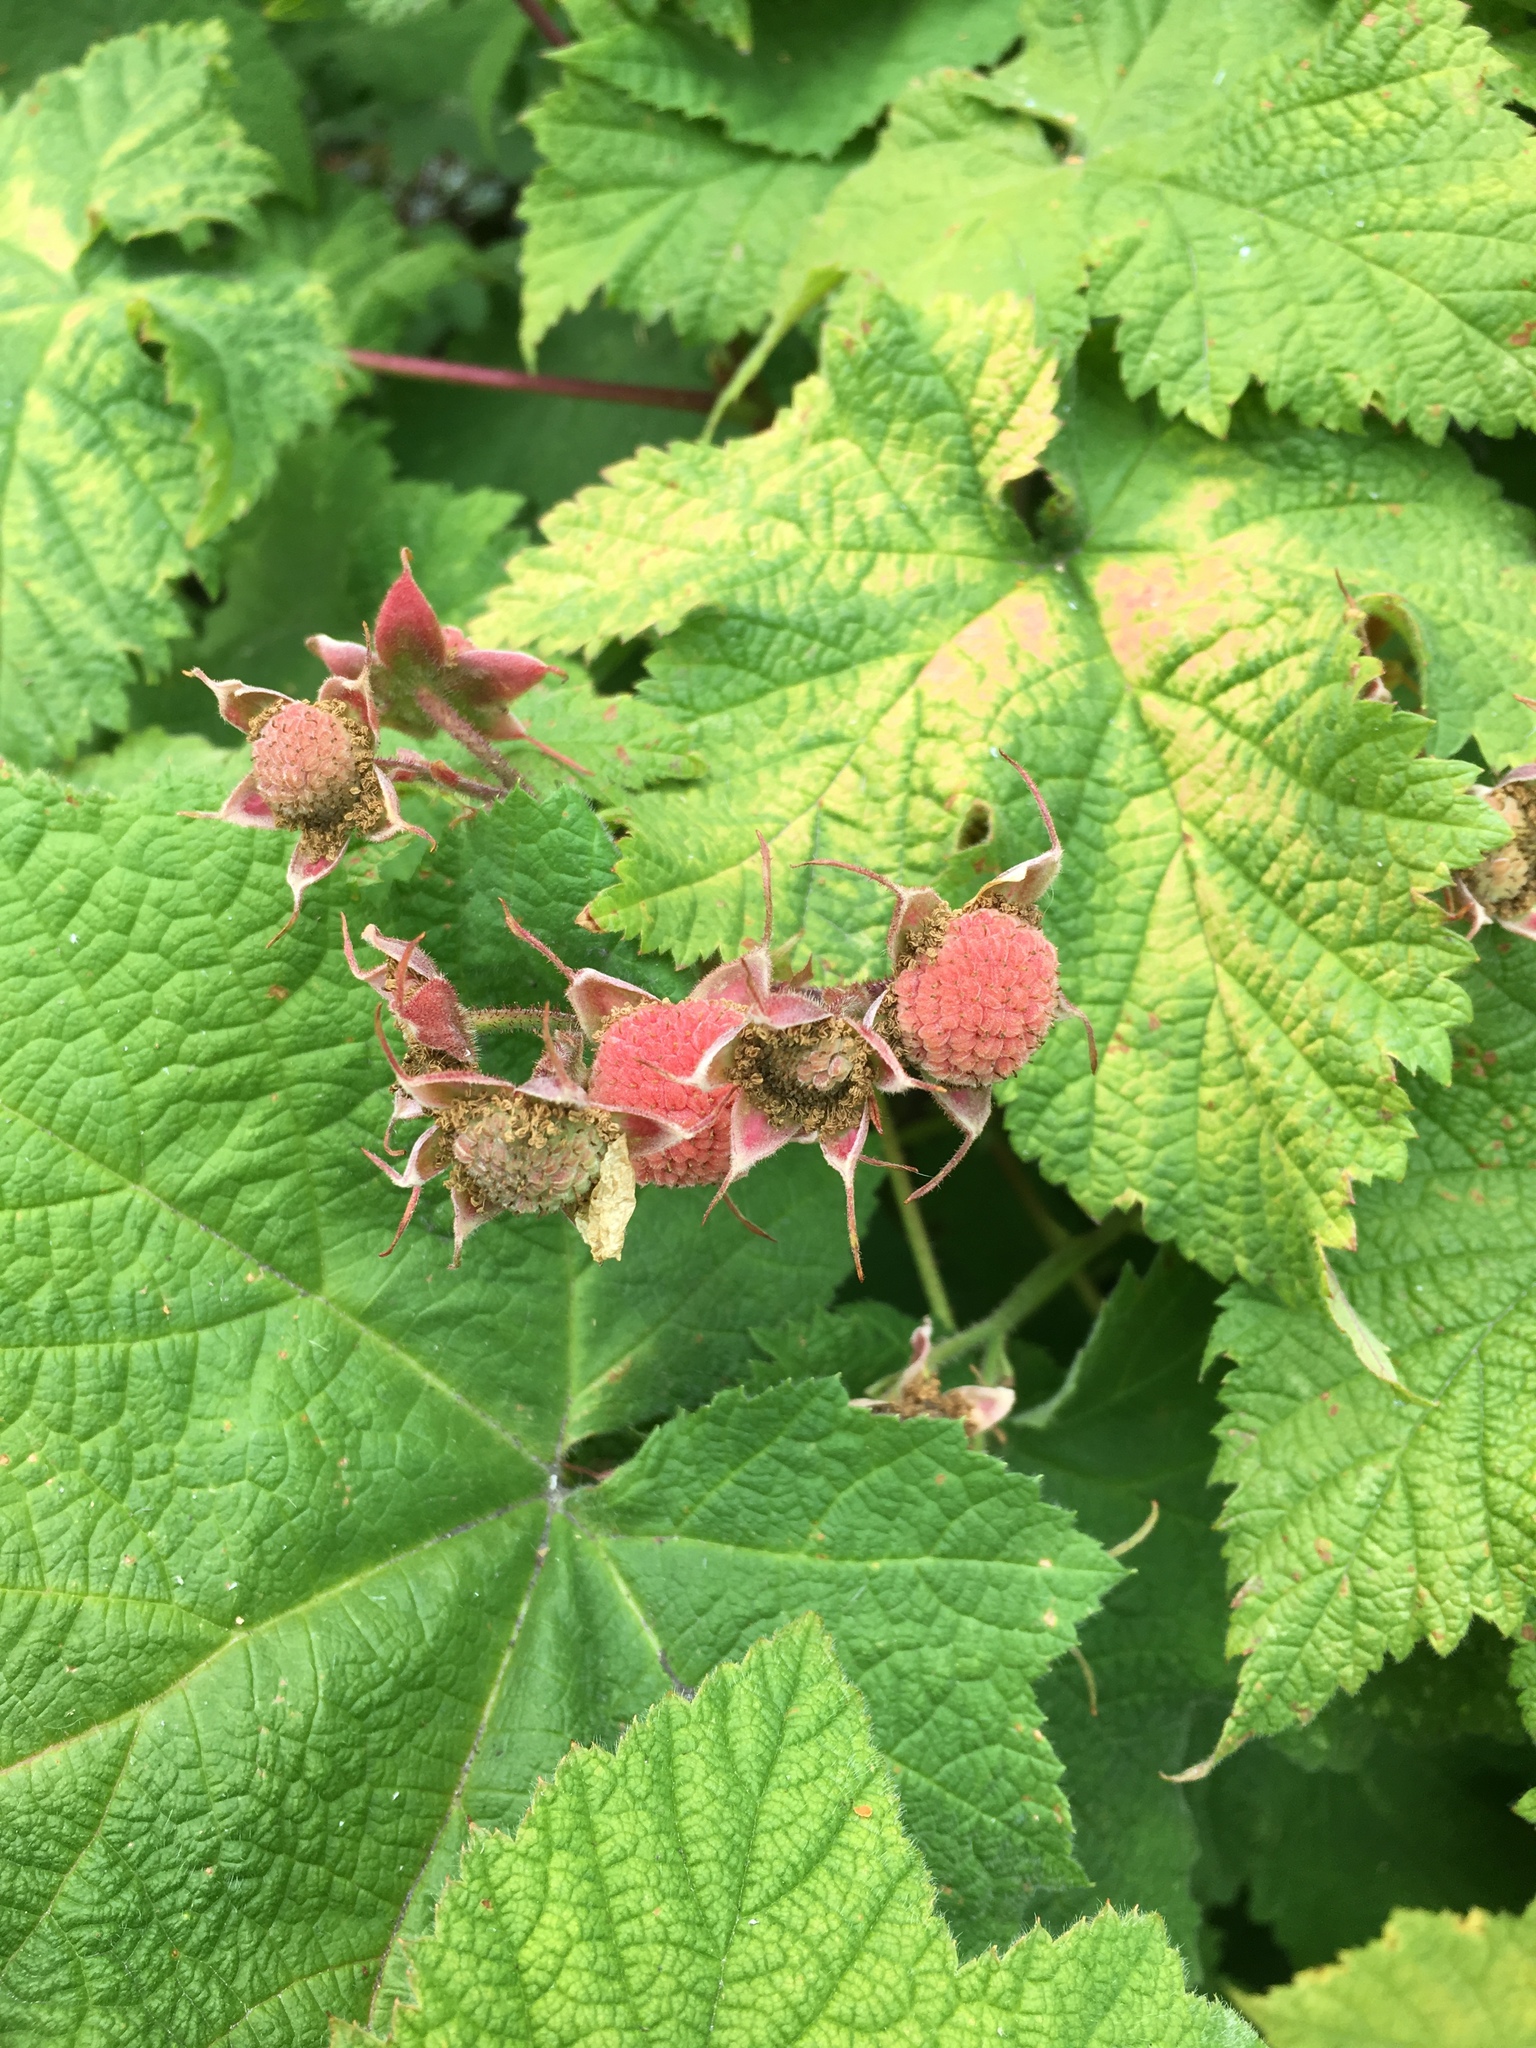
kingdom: Plantae
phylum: Tracheophyta
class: Magnoliopsida
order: Rosales
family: Rosaceae
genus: Rubus
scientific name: Rubus parviflorus
